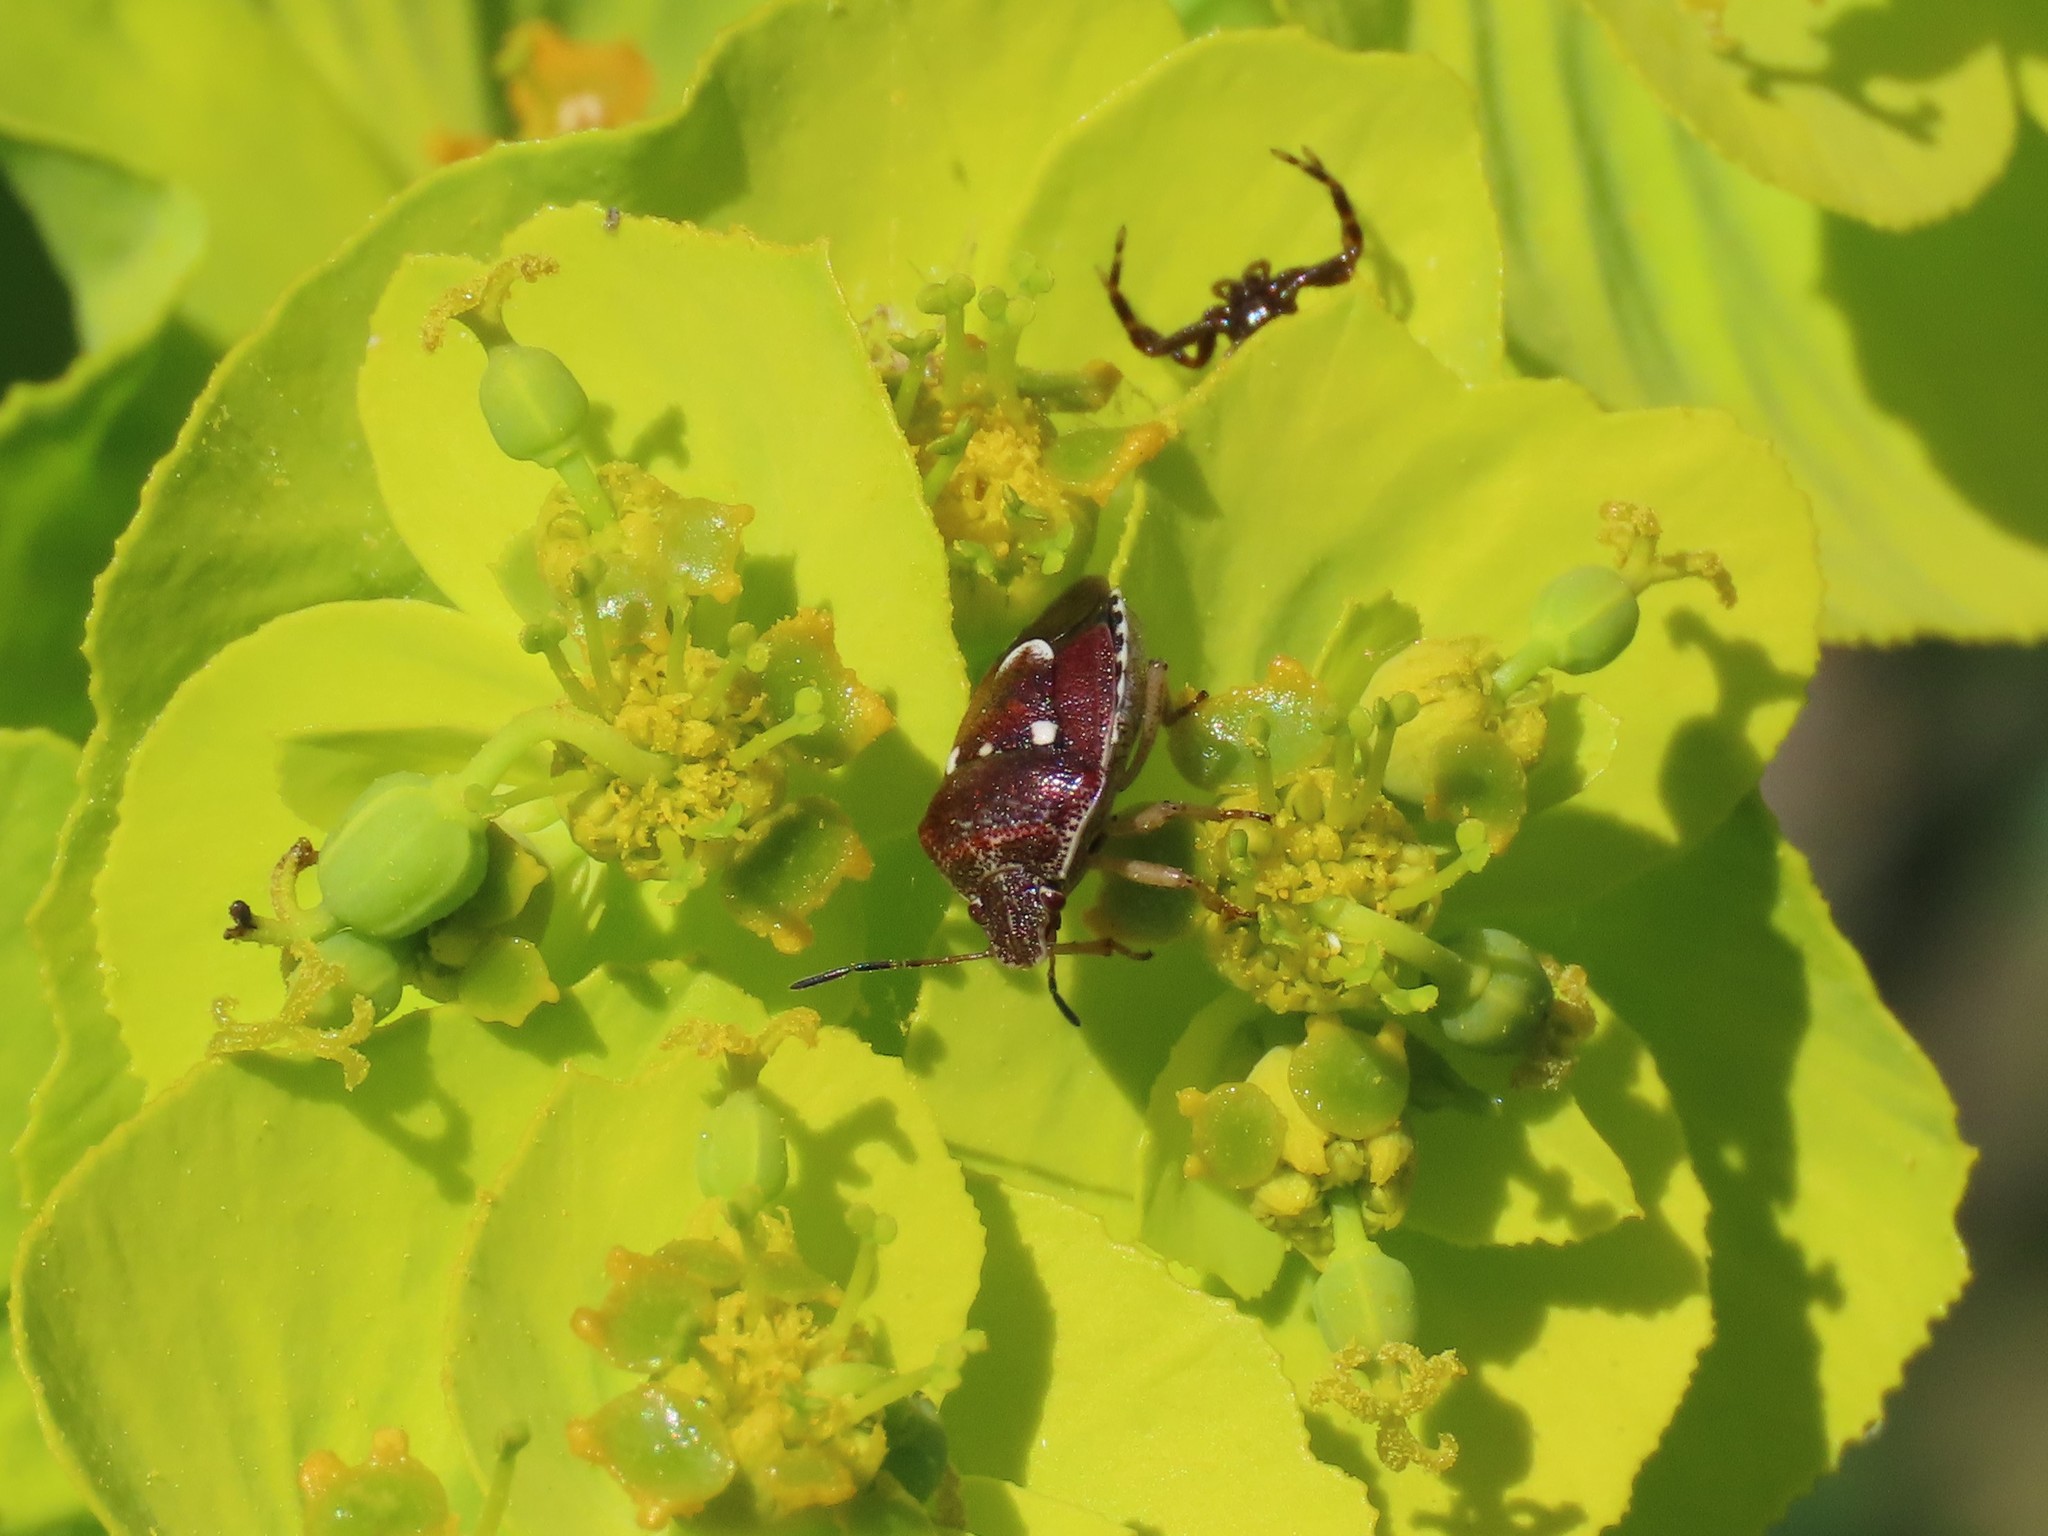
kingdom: Animalia
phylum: Arthropoda
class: Insecta
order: Hemiptera
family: Pentatomidae
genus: Stagonomus
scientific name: Stagonomus amoenus
